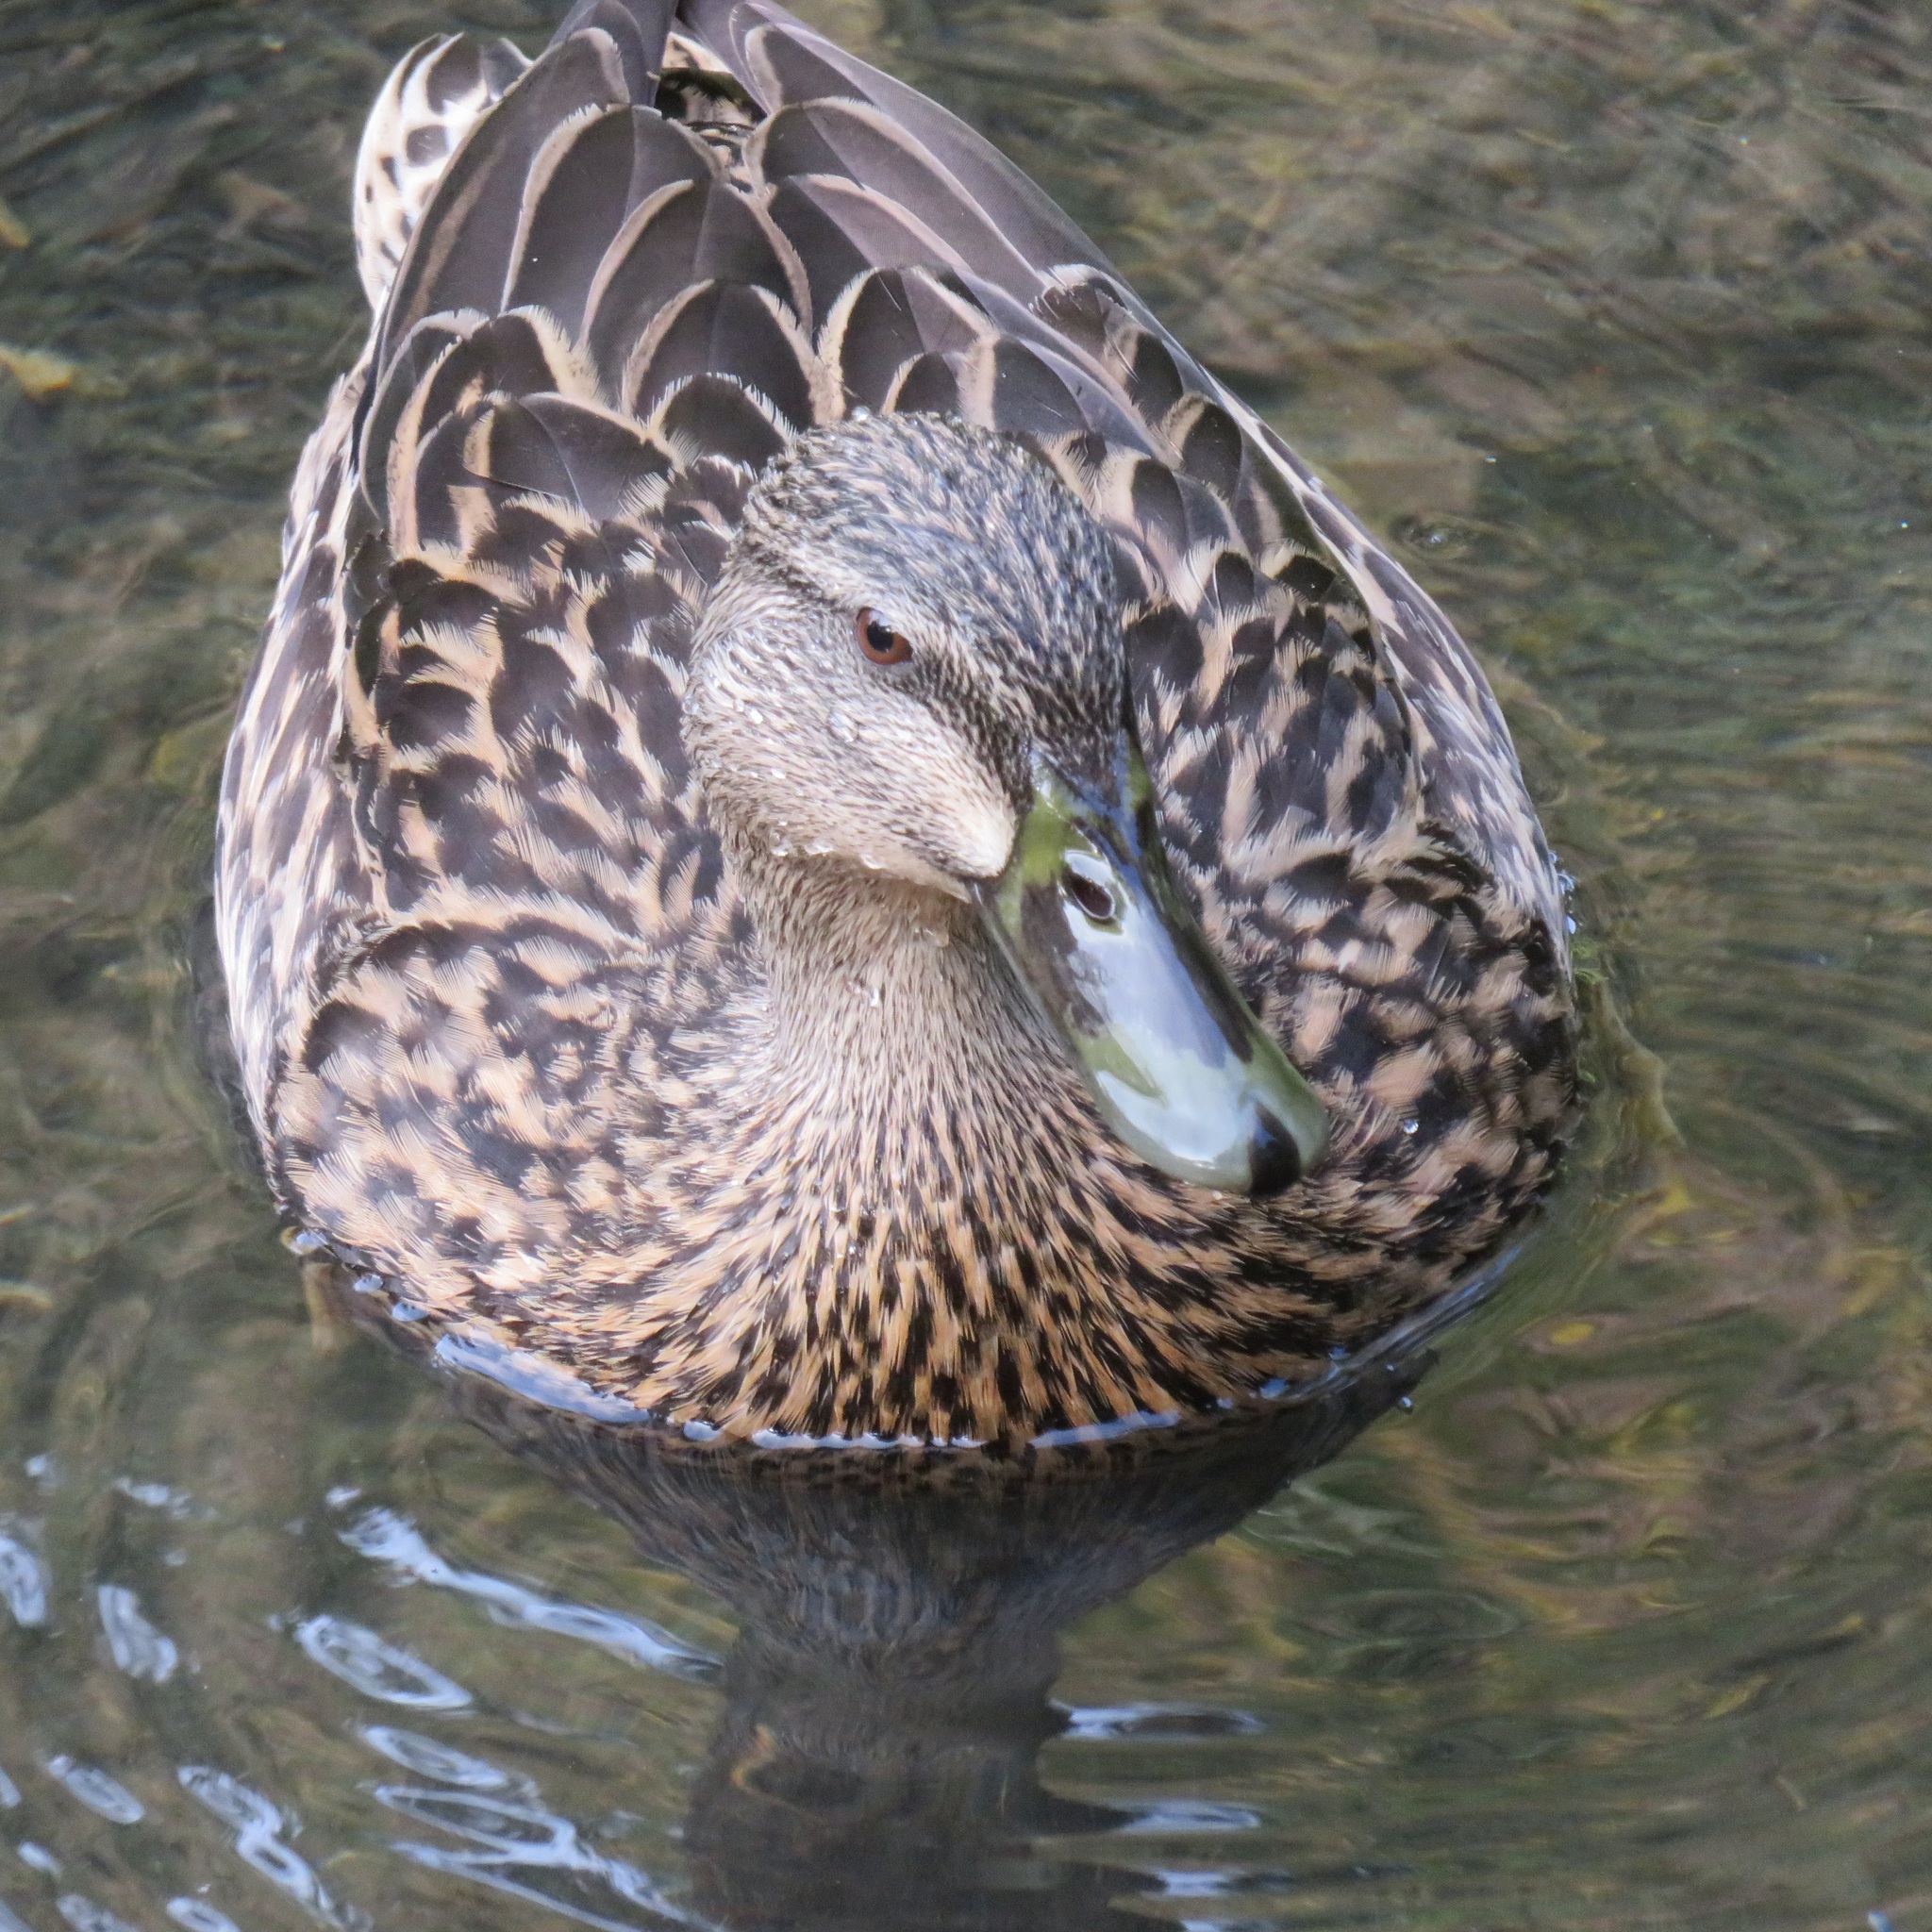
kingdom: Animalia
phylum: Chordata
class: Aves
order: Anseriformes
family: Anatidae
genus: Anas
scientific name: Anas platyrhynchos
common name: Mallard
